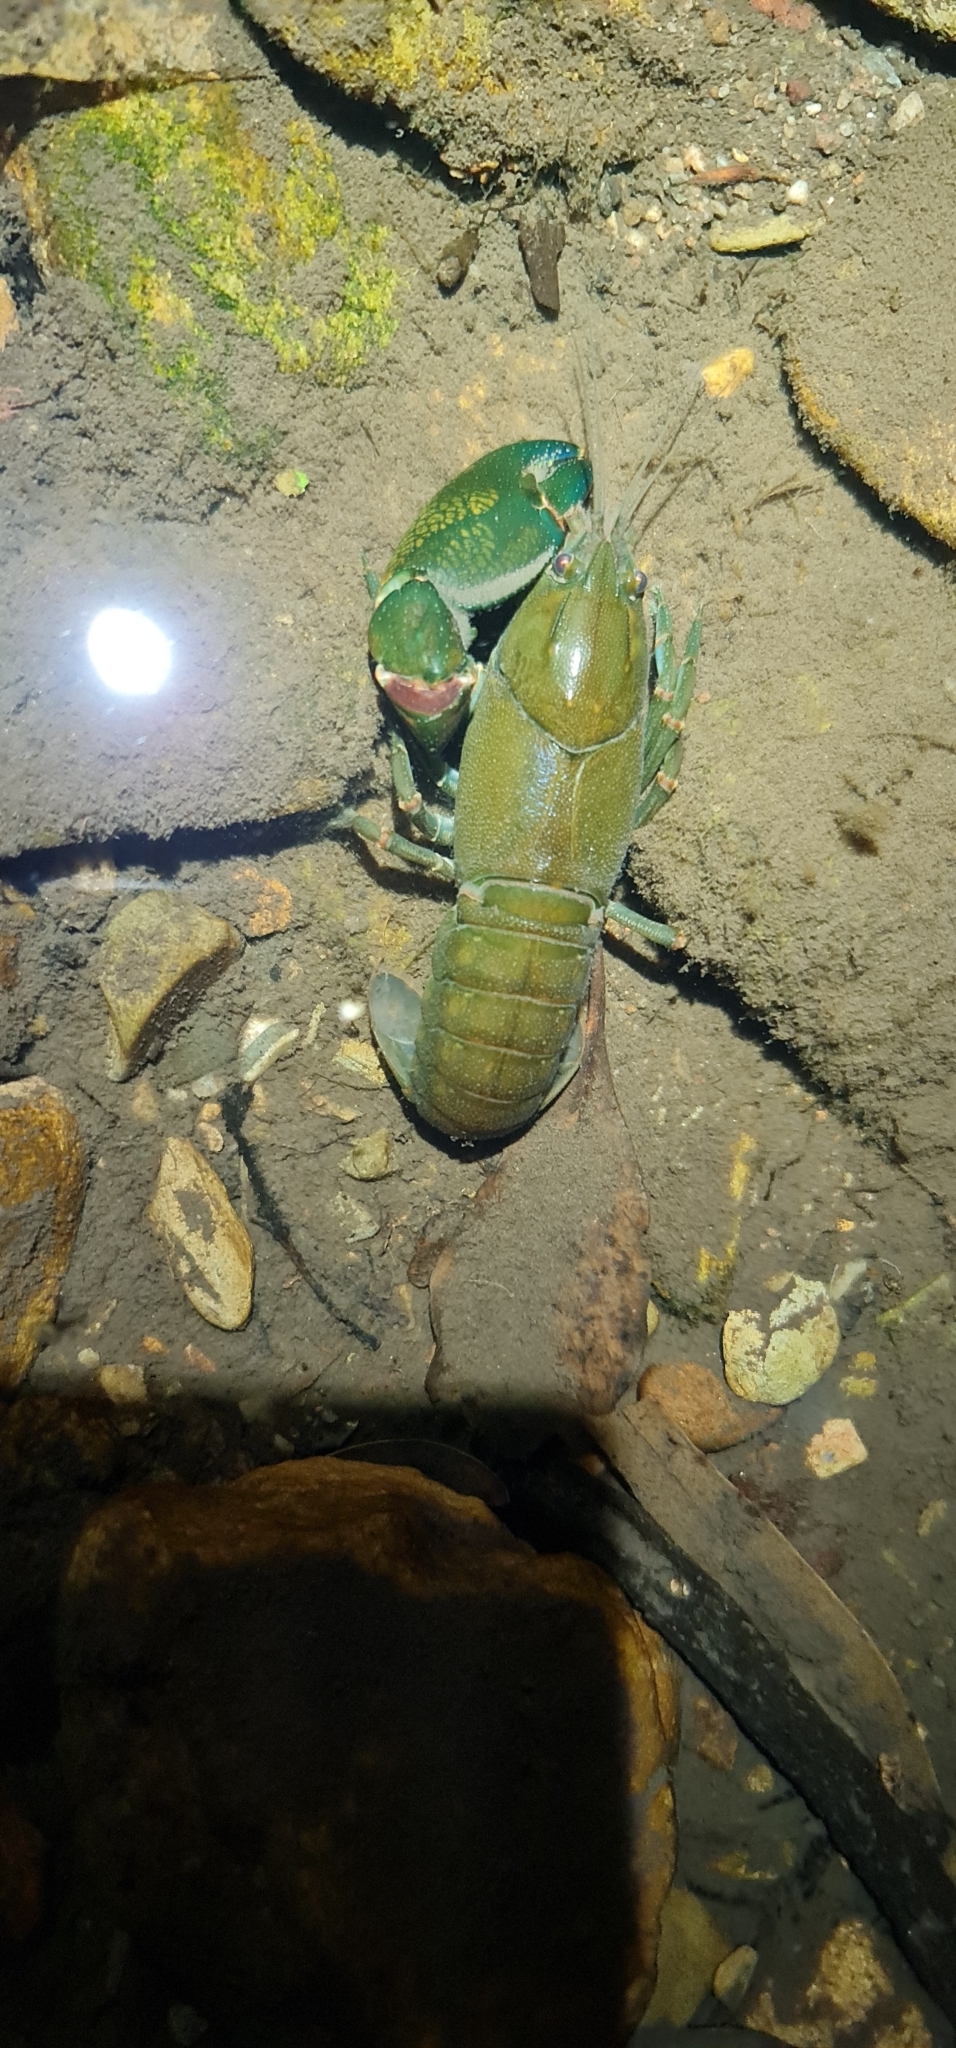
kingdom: Animalia
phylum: Arthropoda
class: Malacostraca
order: Decapoda
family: Parastacidae
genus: Cherax
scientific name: Cherax destructor
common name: Yabby
